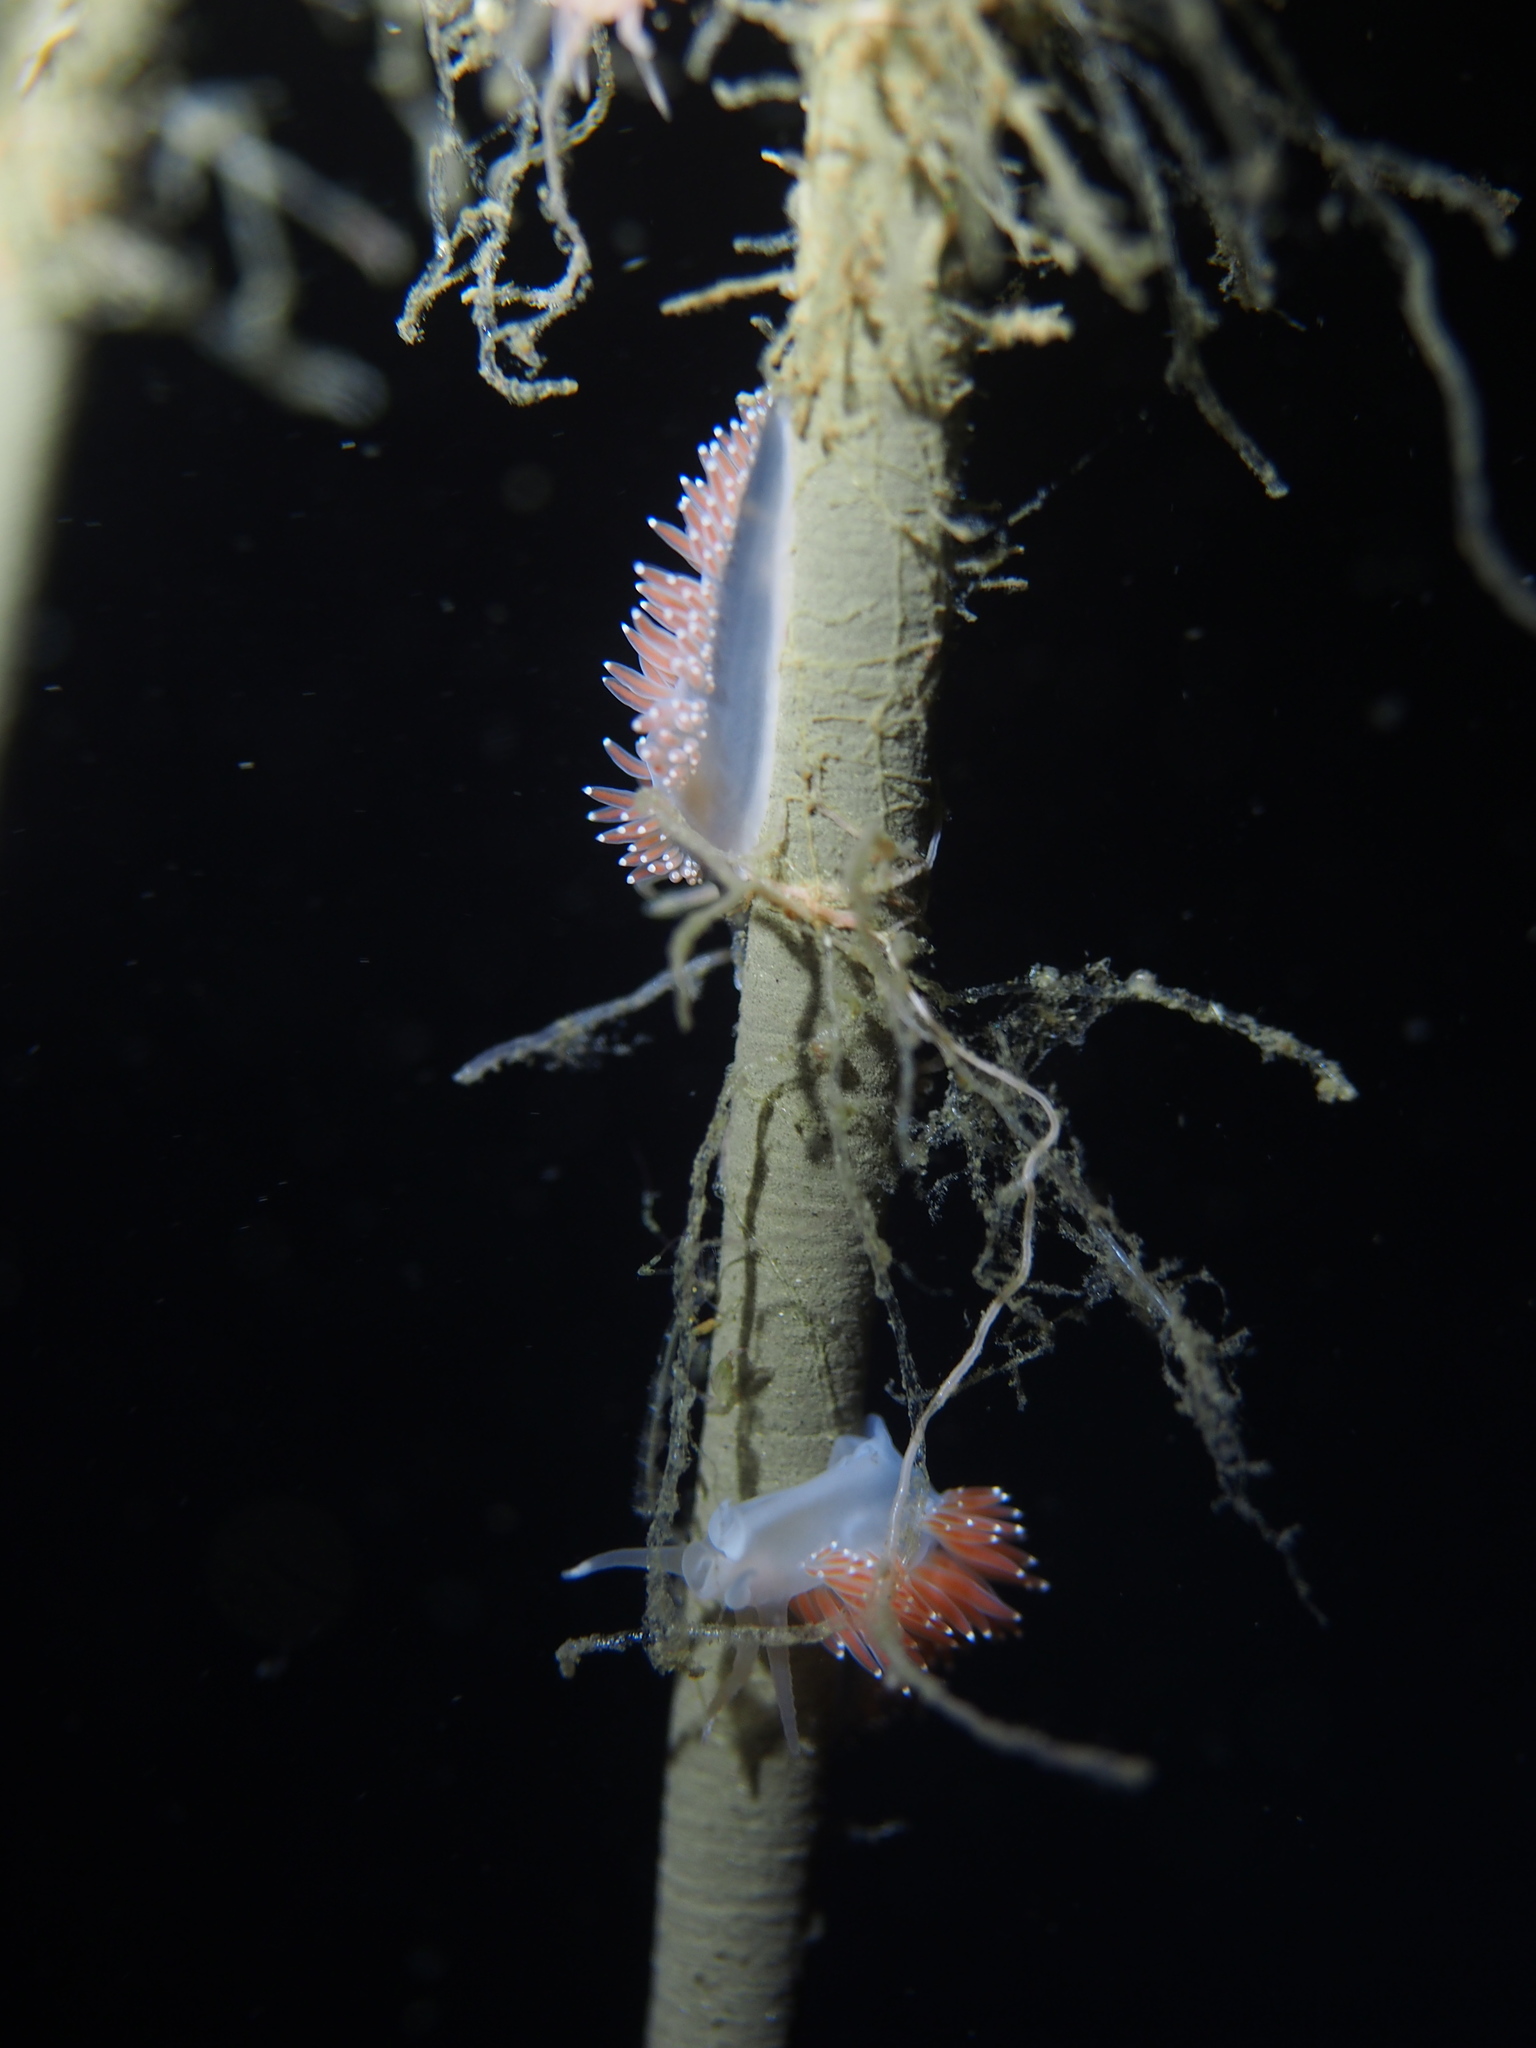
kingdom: Animalia
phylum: Mollusca
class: Gastropoda
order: Nudibranchia
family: Coryphellidae
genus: Coryphella
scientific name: Coryphella verrucosa
